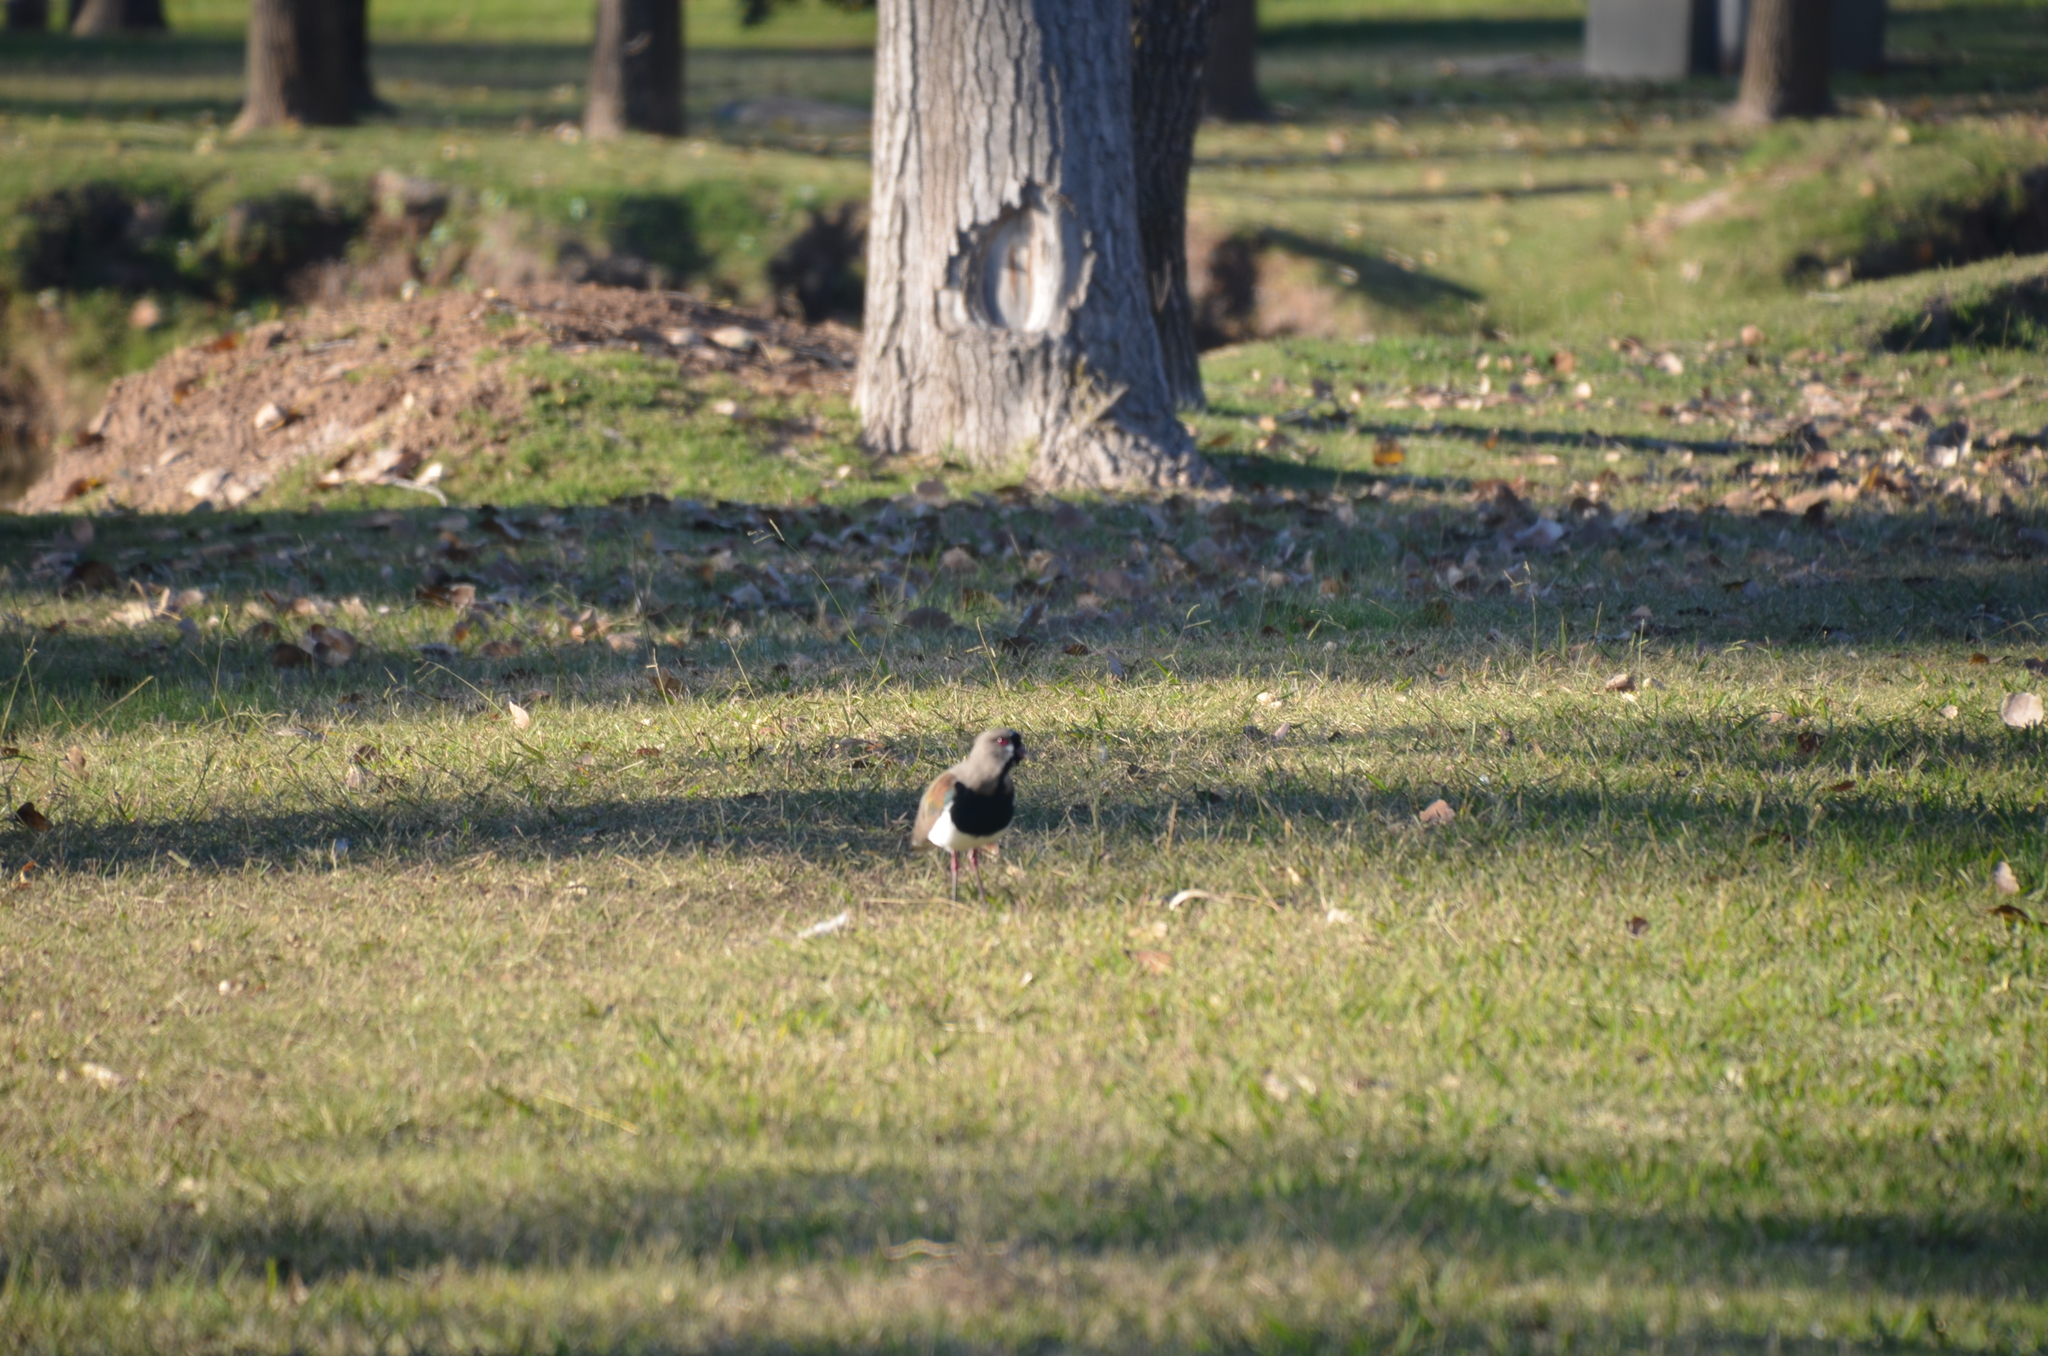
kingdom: Animalia
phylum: Chordata
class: Aves
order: Charadriiformes
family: Charadriidae
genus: Vanellus
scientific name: Vanellus chilensis
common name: Southern lapwing
